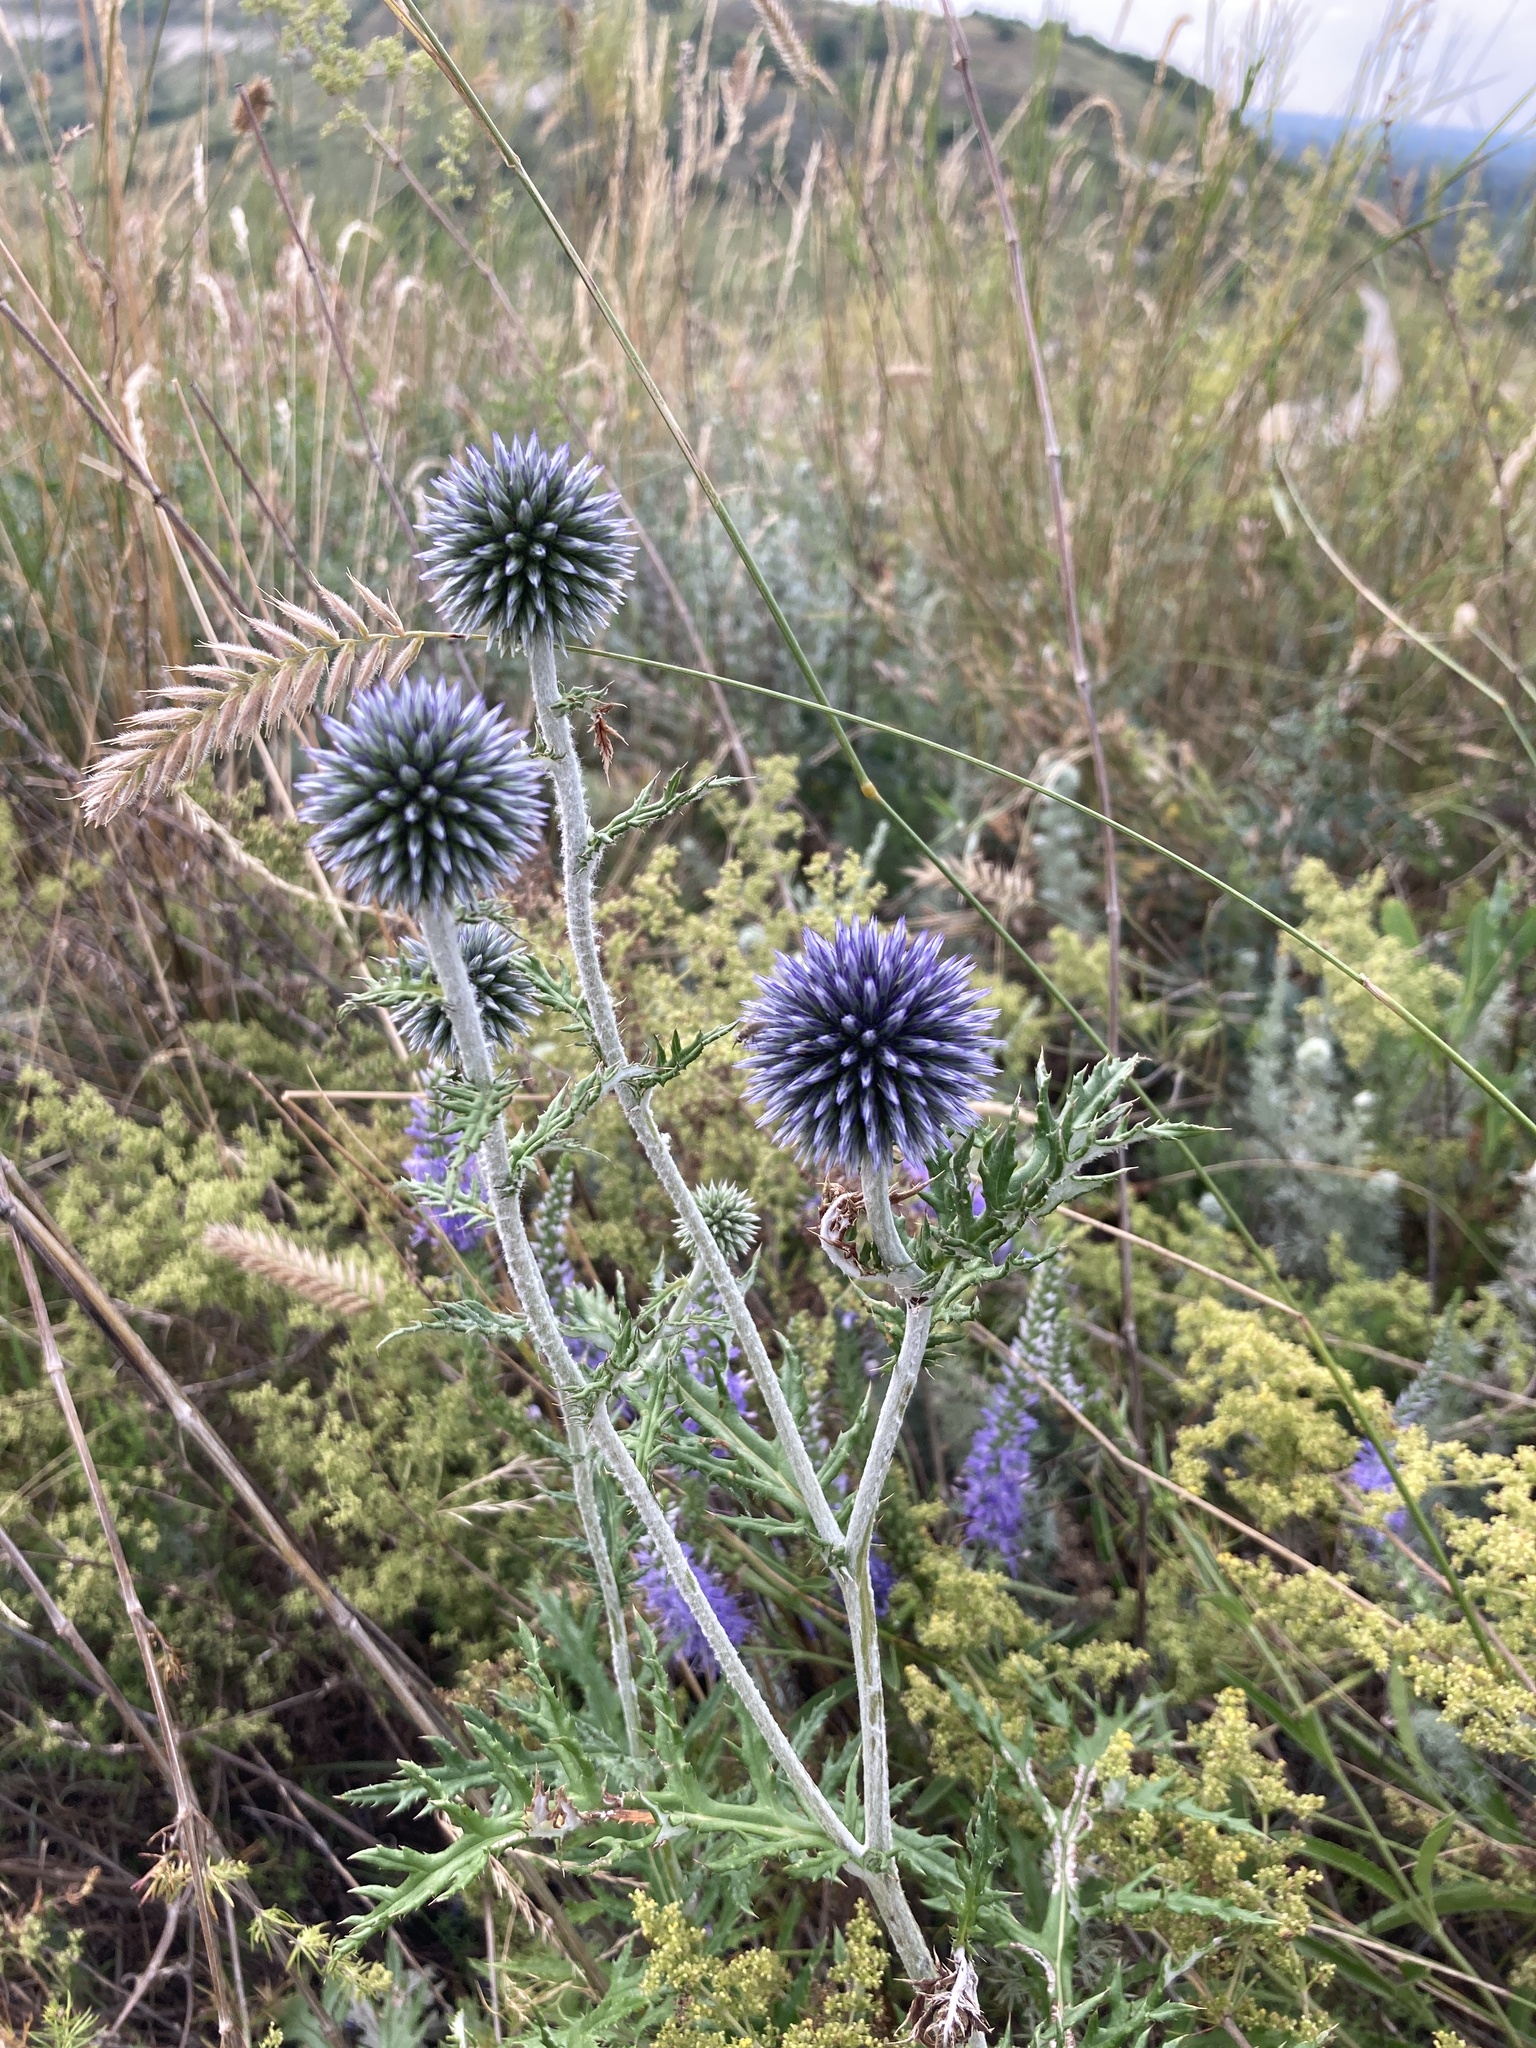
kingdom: Plantae
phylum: Tracheophyta
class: Magnoliopsida
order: Asterales
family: Asteraceae
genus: Echinops
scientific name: Echinops ritro
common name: Globe thistle
